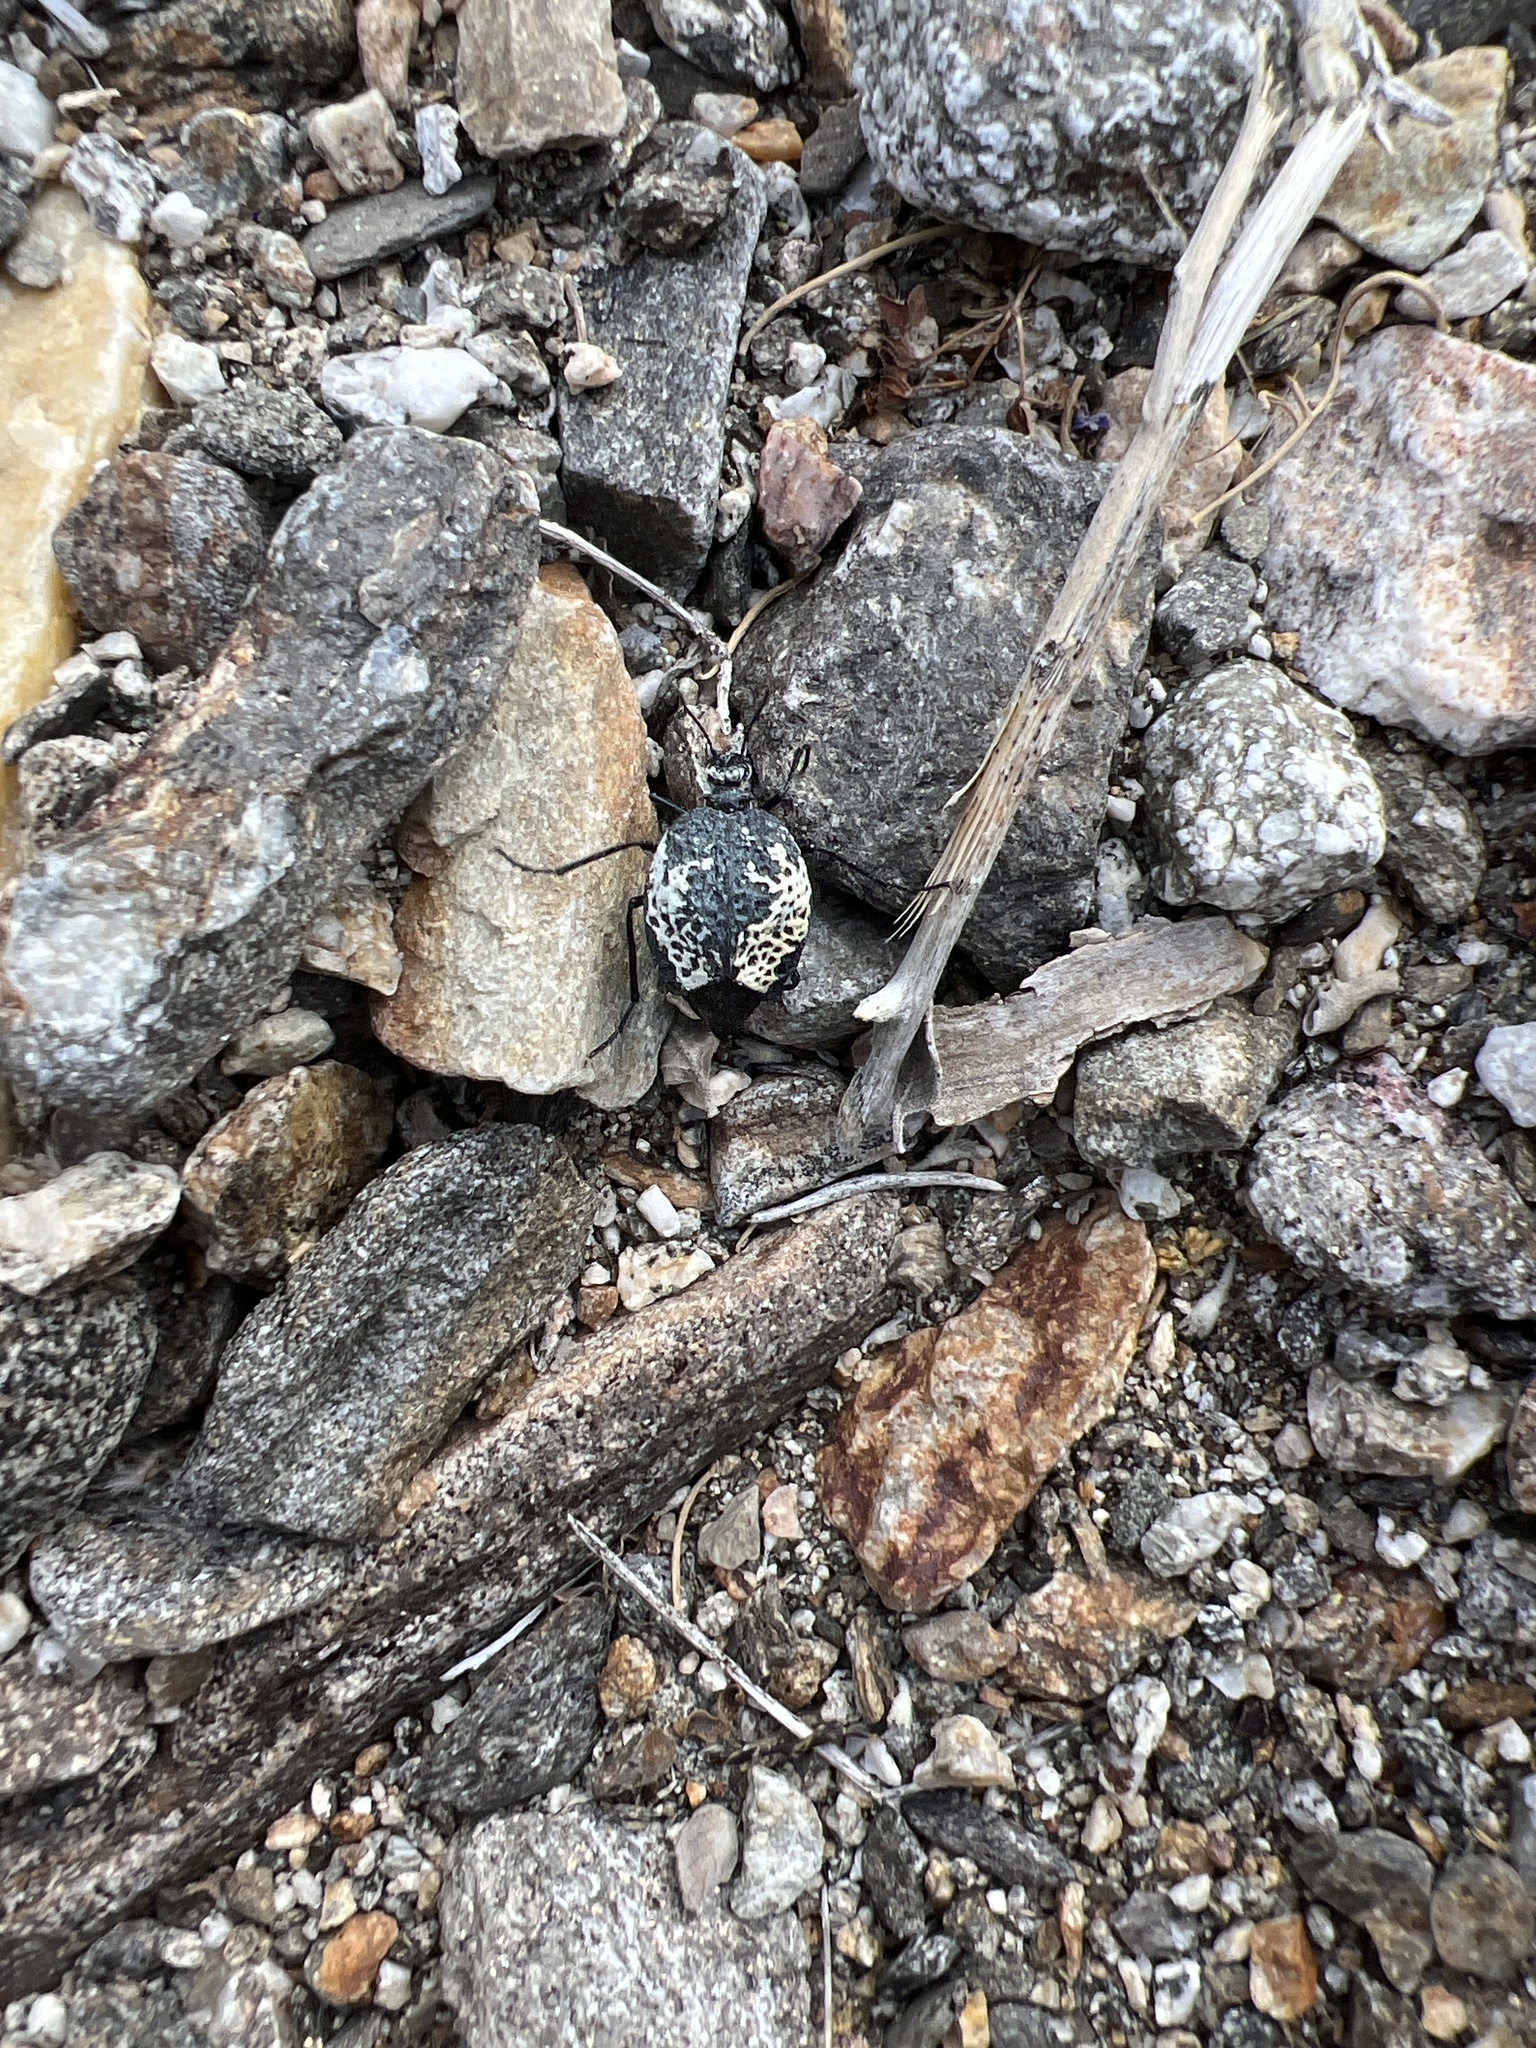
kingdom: Animalia
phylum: Arthropoda
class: Insecta
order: Coleoptera
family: Meloidae
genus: Cysteodemus
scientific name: Cysteodemus armatus
